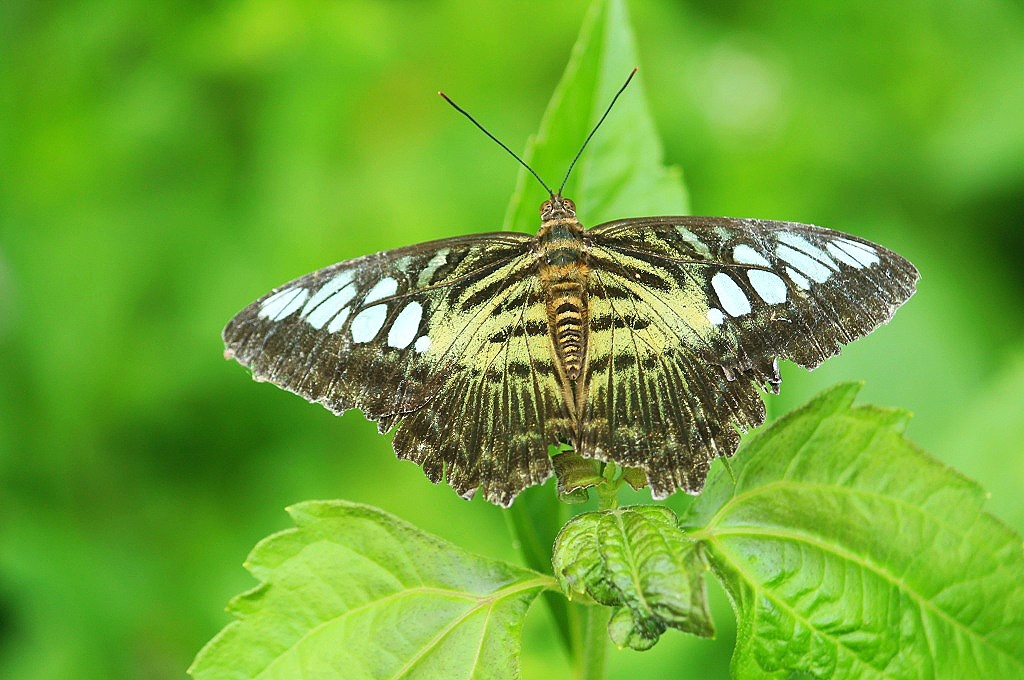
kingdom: Animalia
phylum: Arthropoda
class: Insecta
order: Lepidoptera
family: Nymphalidae
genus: Kallima
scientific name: Kallima sylvia
